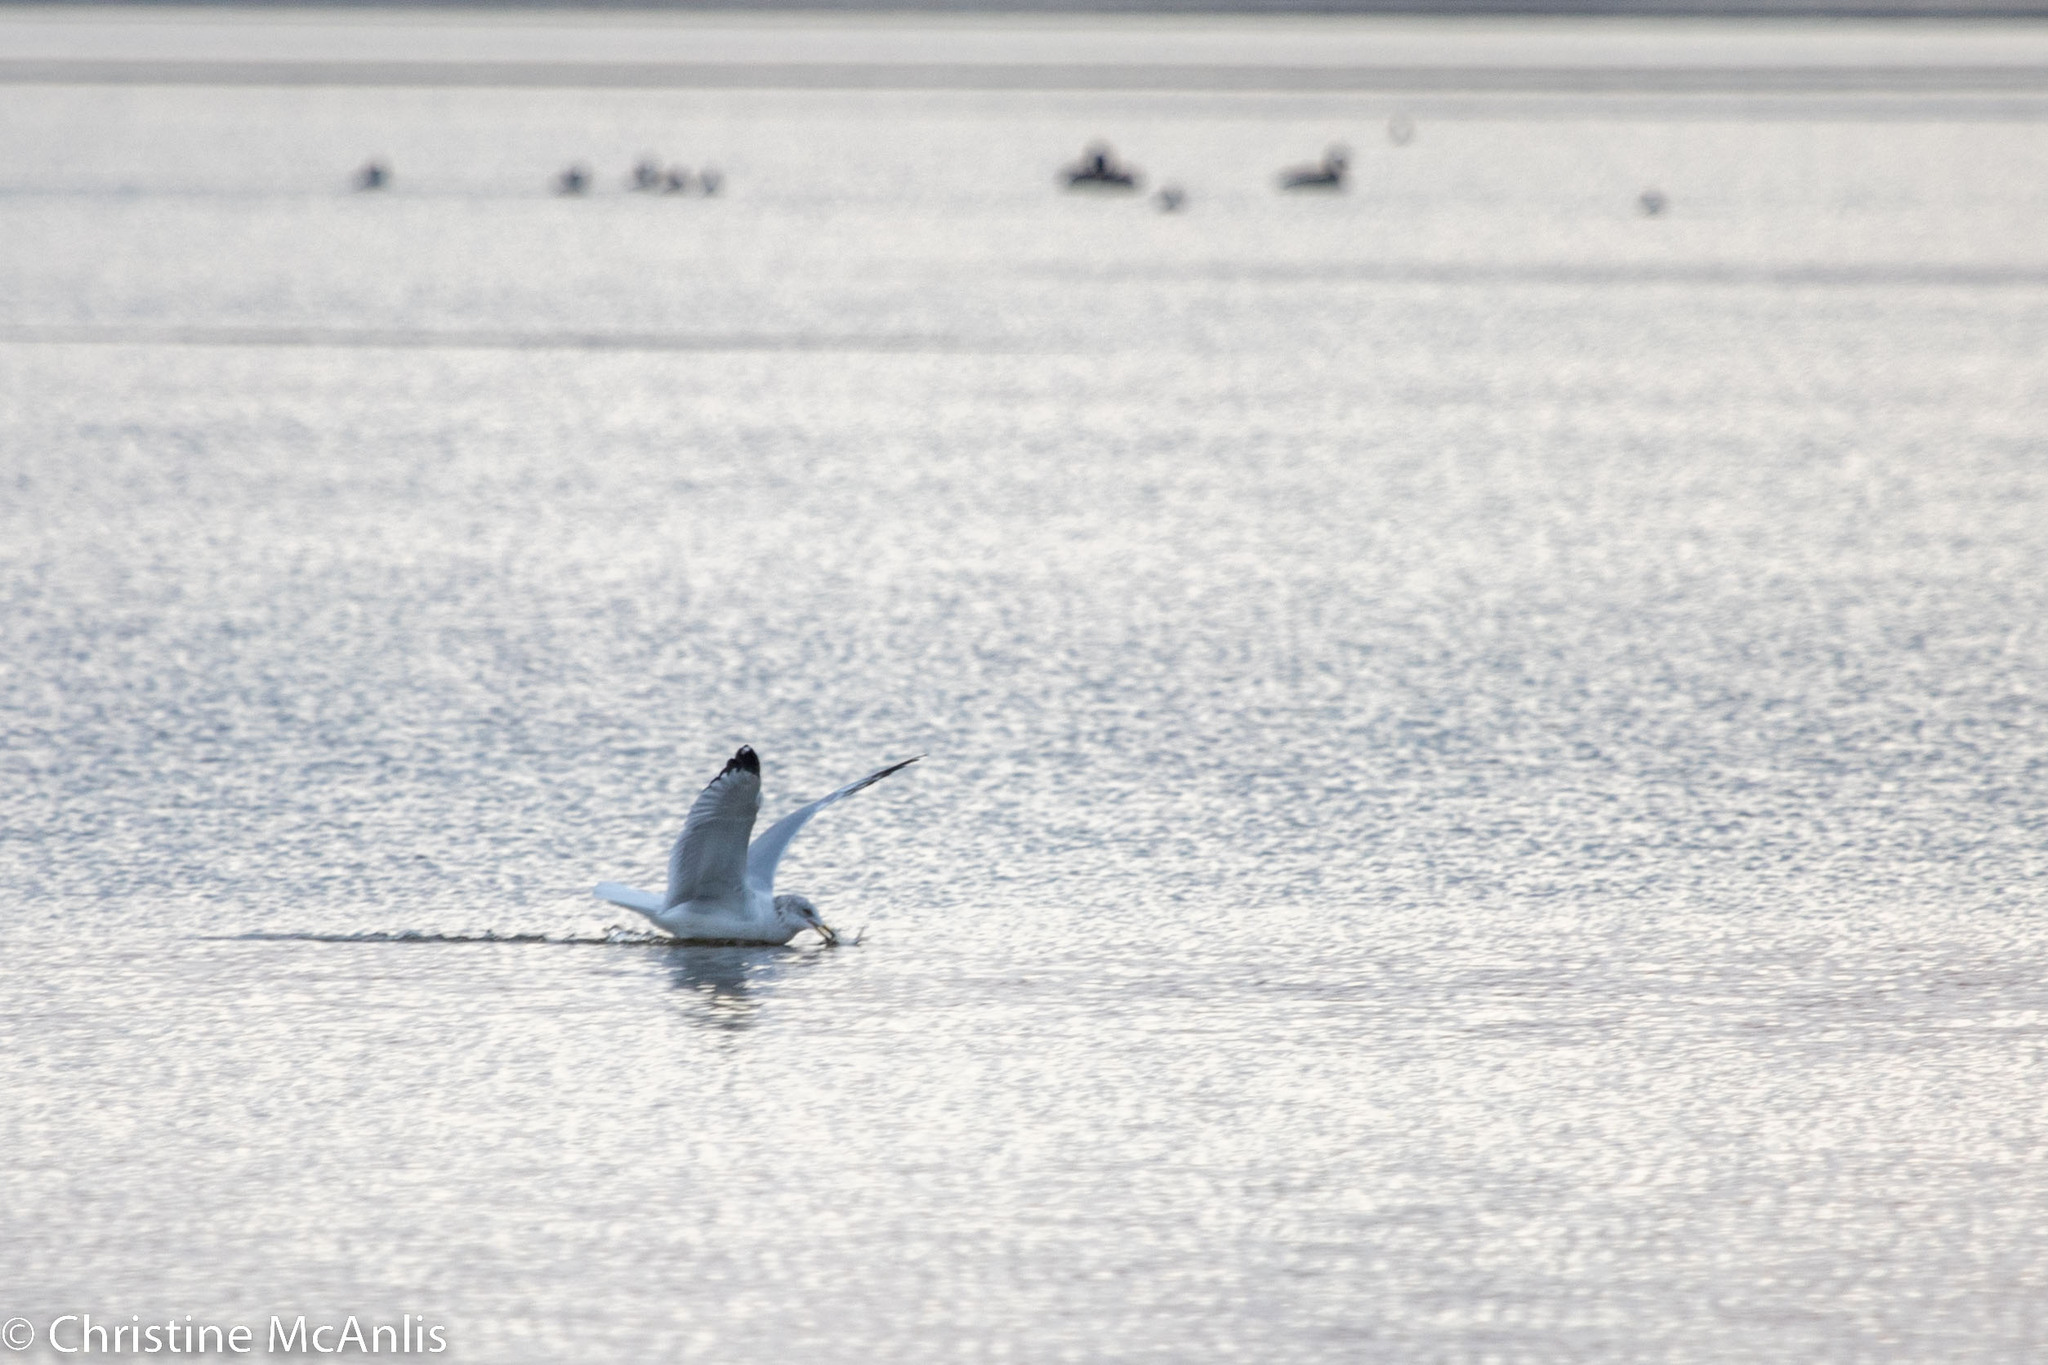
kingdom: Animalia
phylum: Chordata
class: Aves
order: Charadriiformes
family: Laridae
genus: Larus
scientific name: Larus delawarensis
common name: Ring-billed gull
